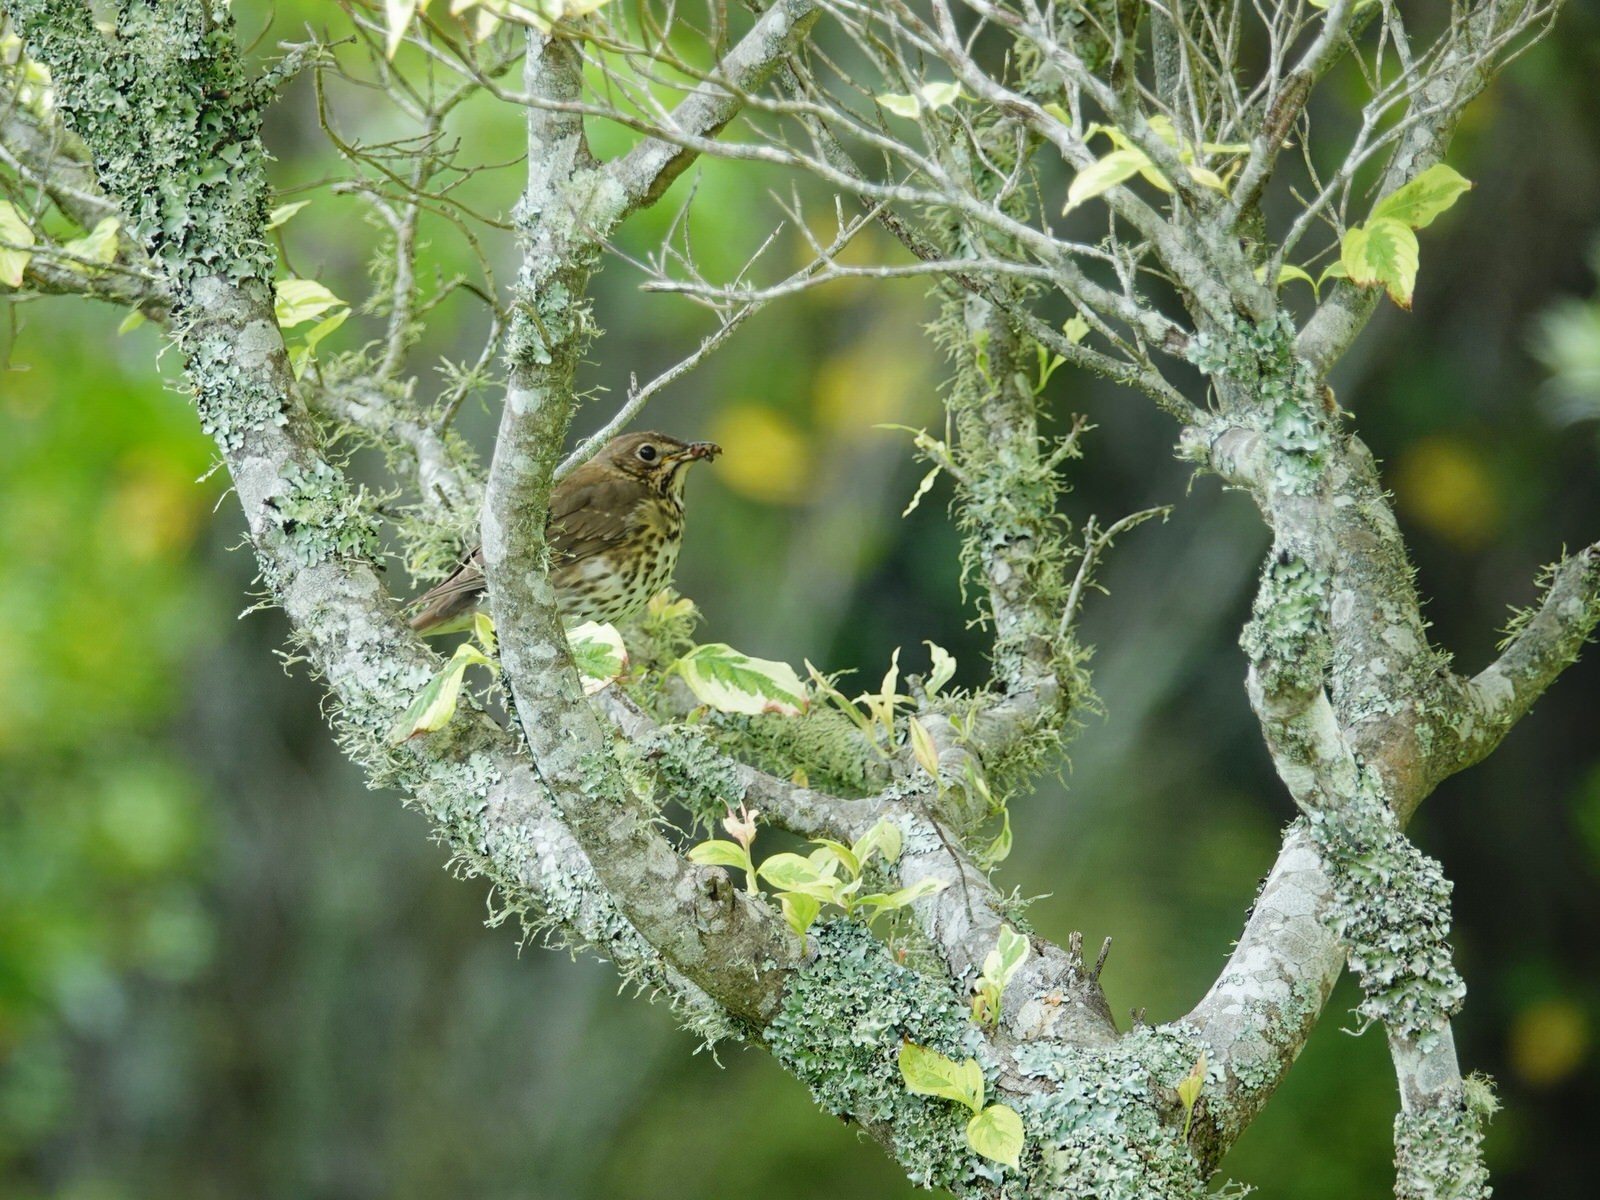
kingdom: Animalia
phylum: Chordata
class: Aves
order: Passeriformes
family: Turdidae
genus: Turdus
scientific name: Turdus philomelos
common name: Song thrush
